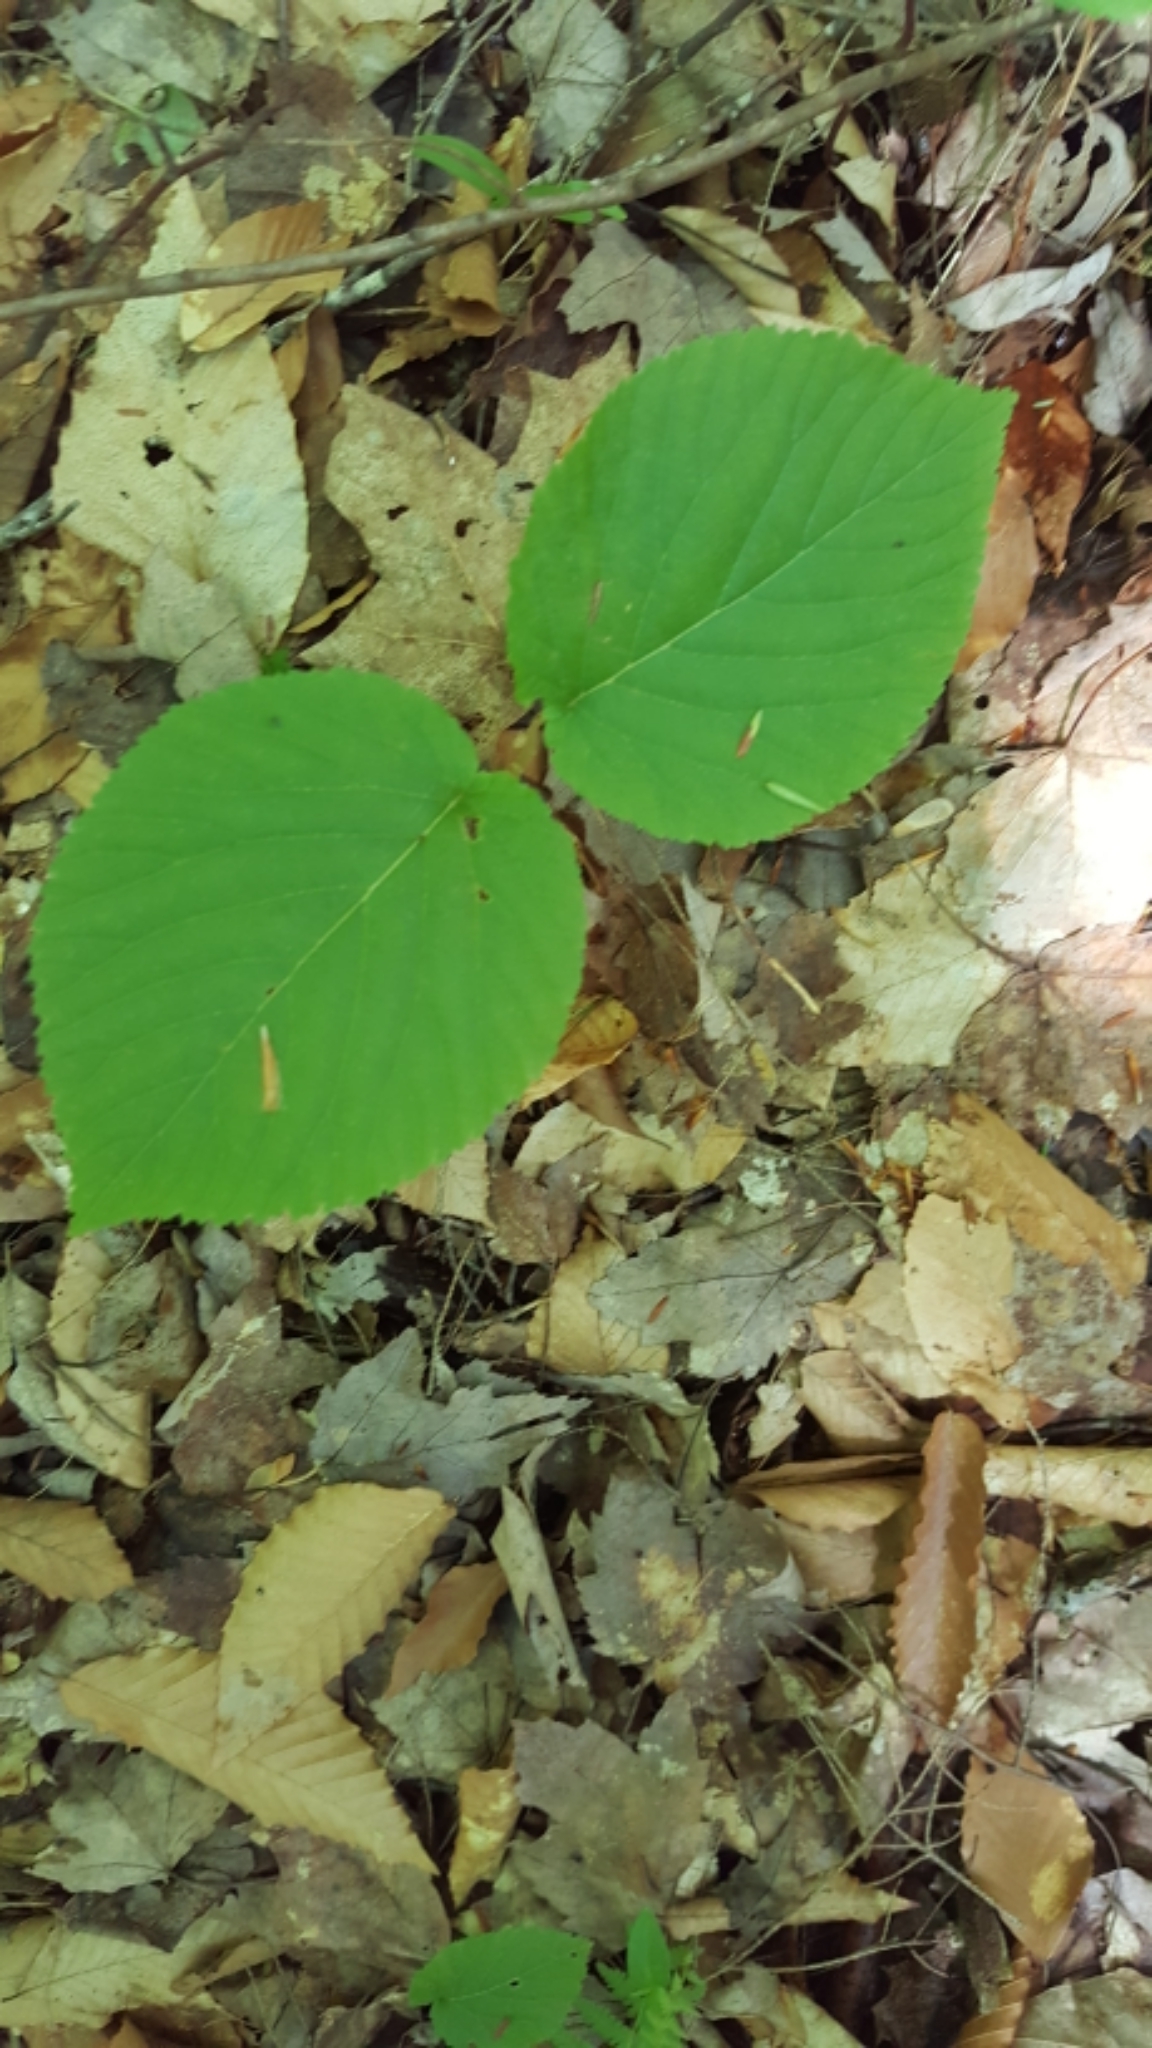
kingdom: Plantae
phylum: Tracheophyta
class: Magnoliopsida
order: Dipsacales
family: Viburnaceae
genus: Viburnum
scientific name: Viburnum lantanoides
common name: Hobblebush
